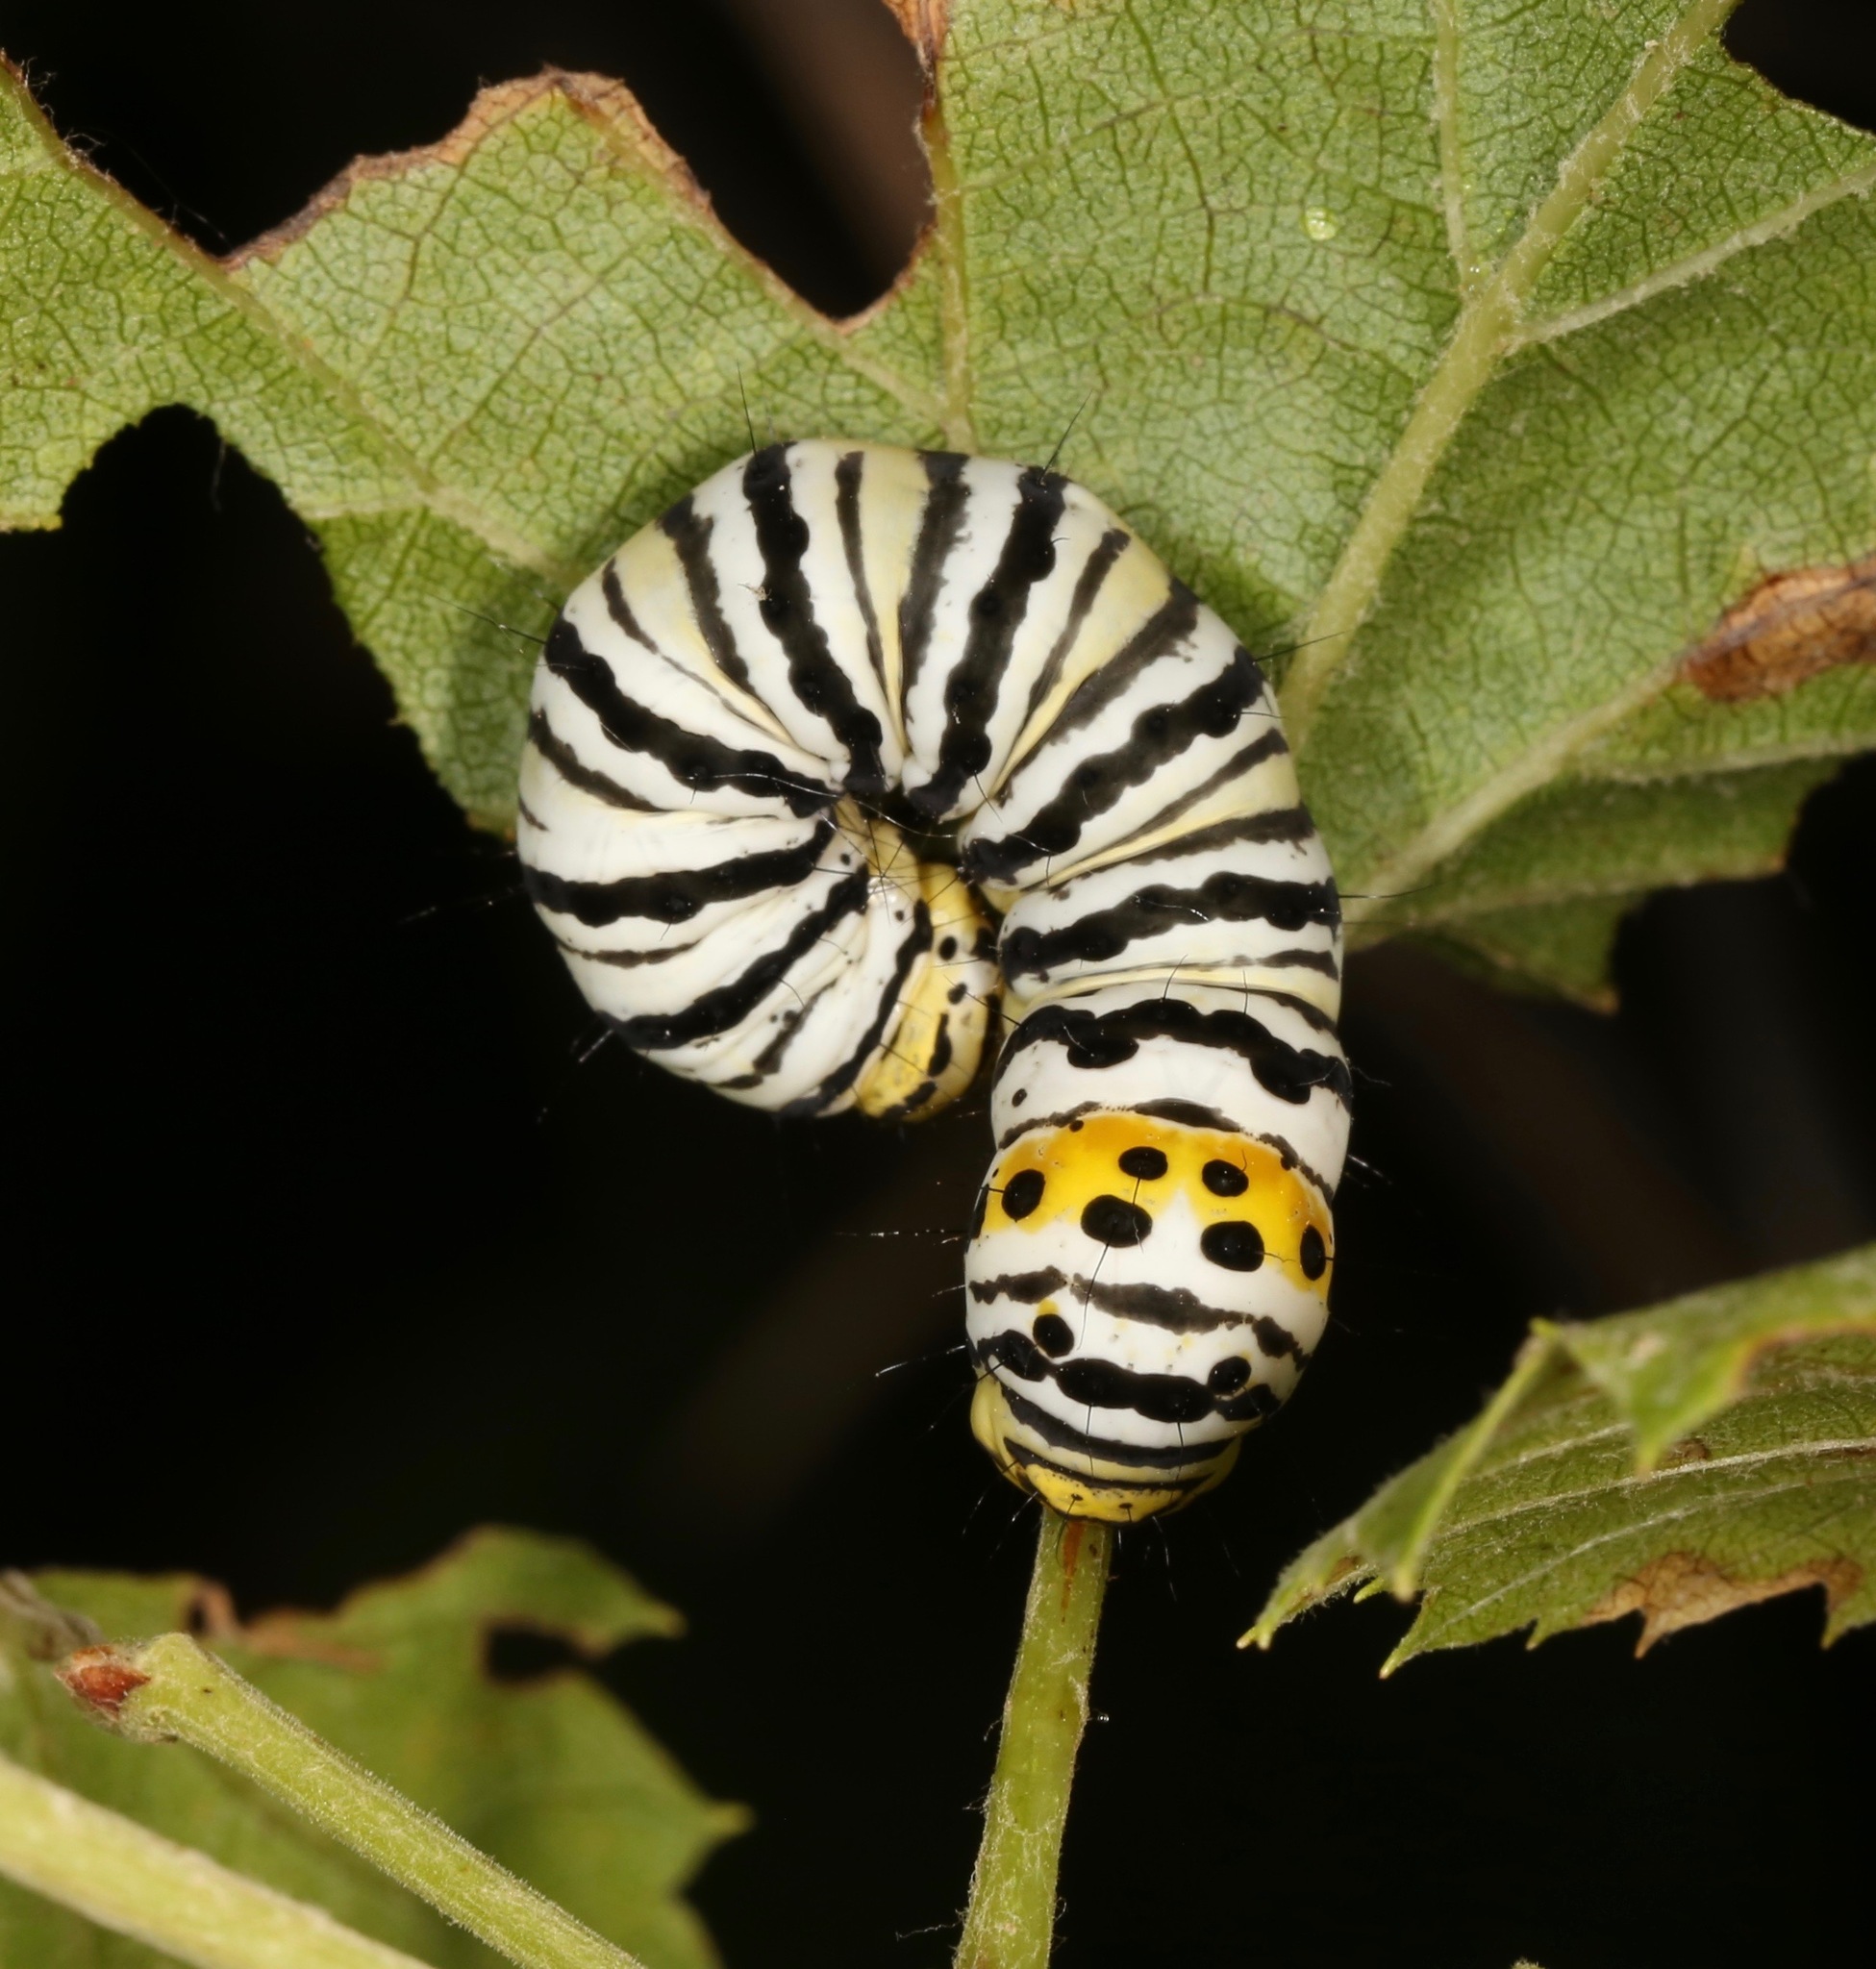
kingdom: Animalia
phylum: Arthropoda
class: Insecta
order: Lepidoptera
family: Noctuidae
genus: Gerrodes
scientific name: Gerrodes minatea
